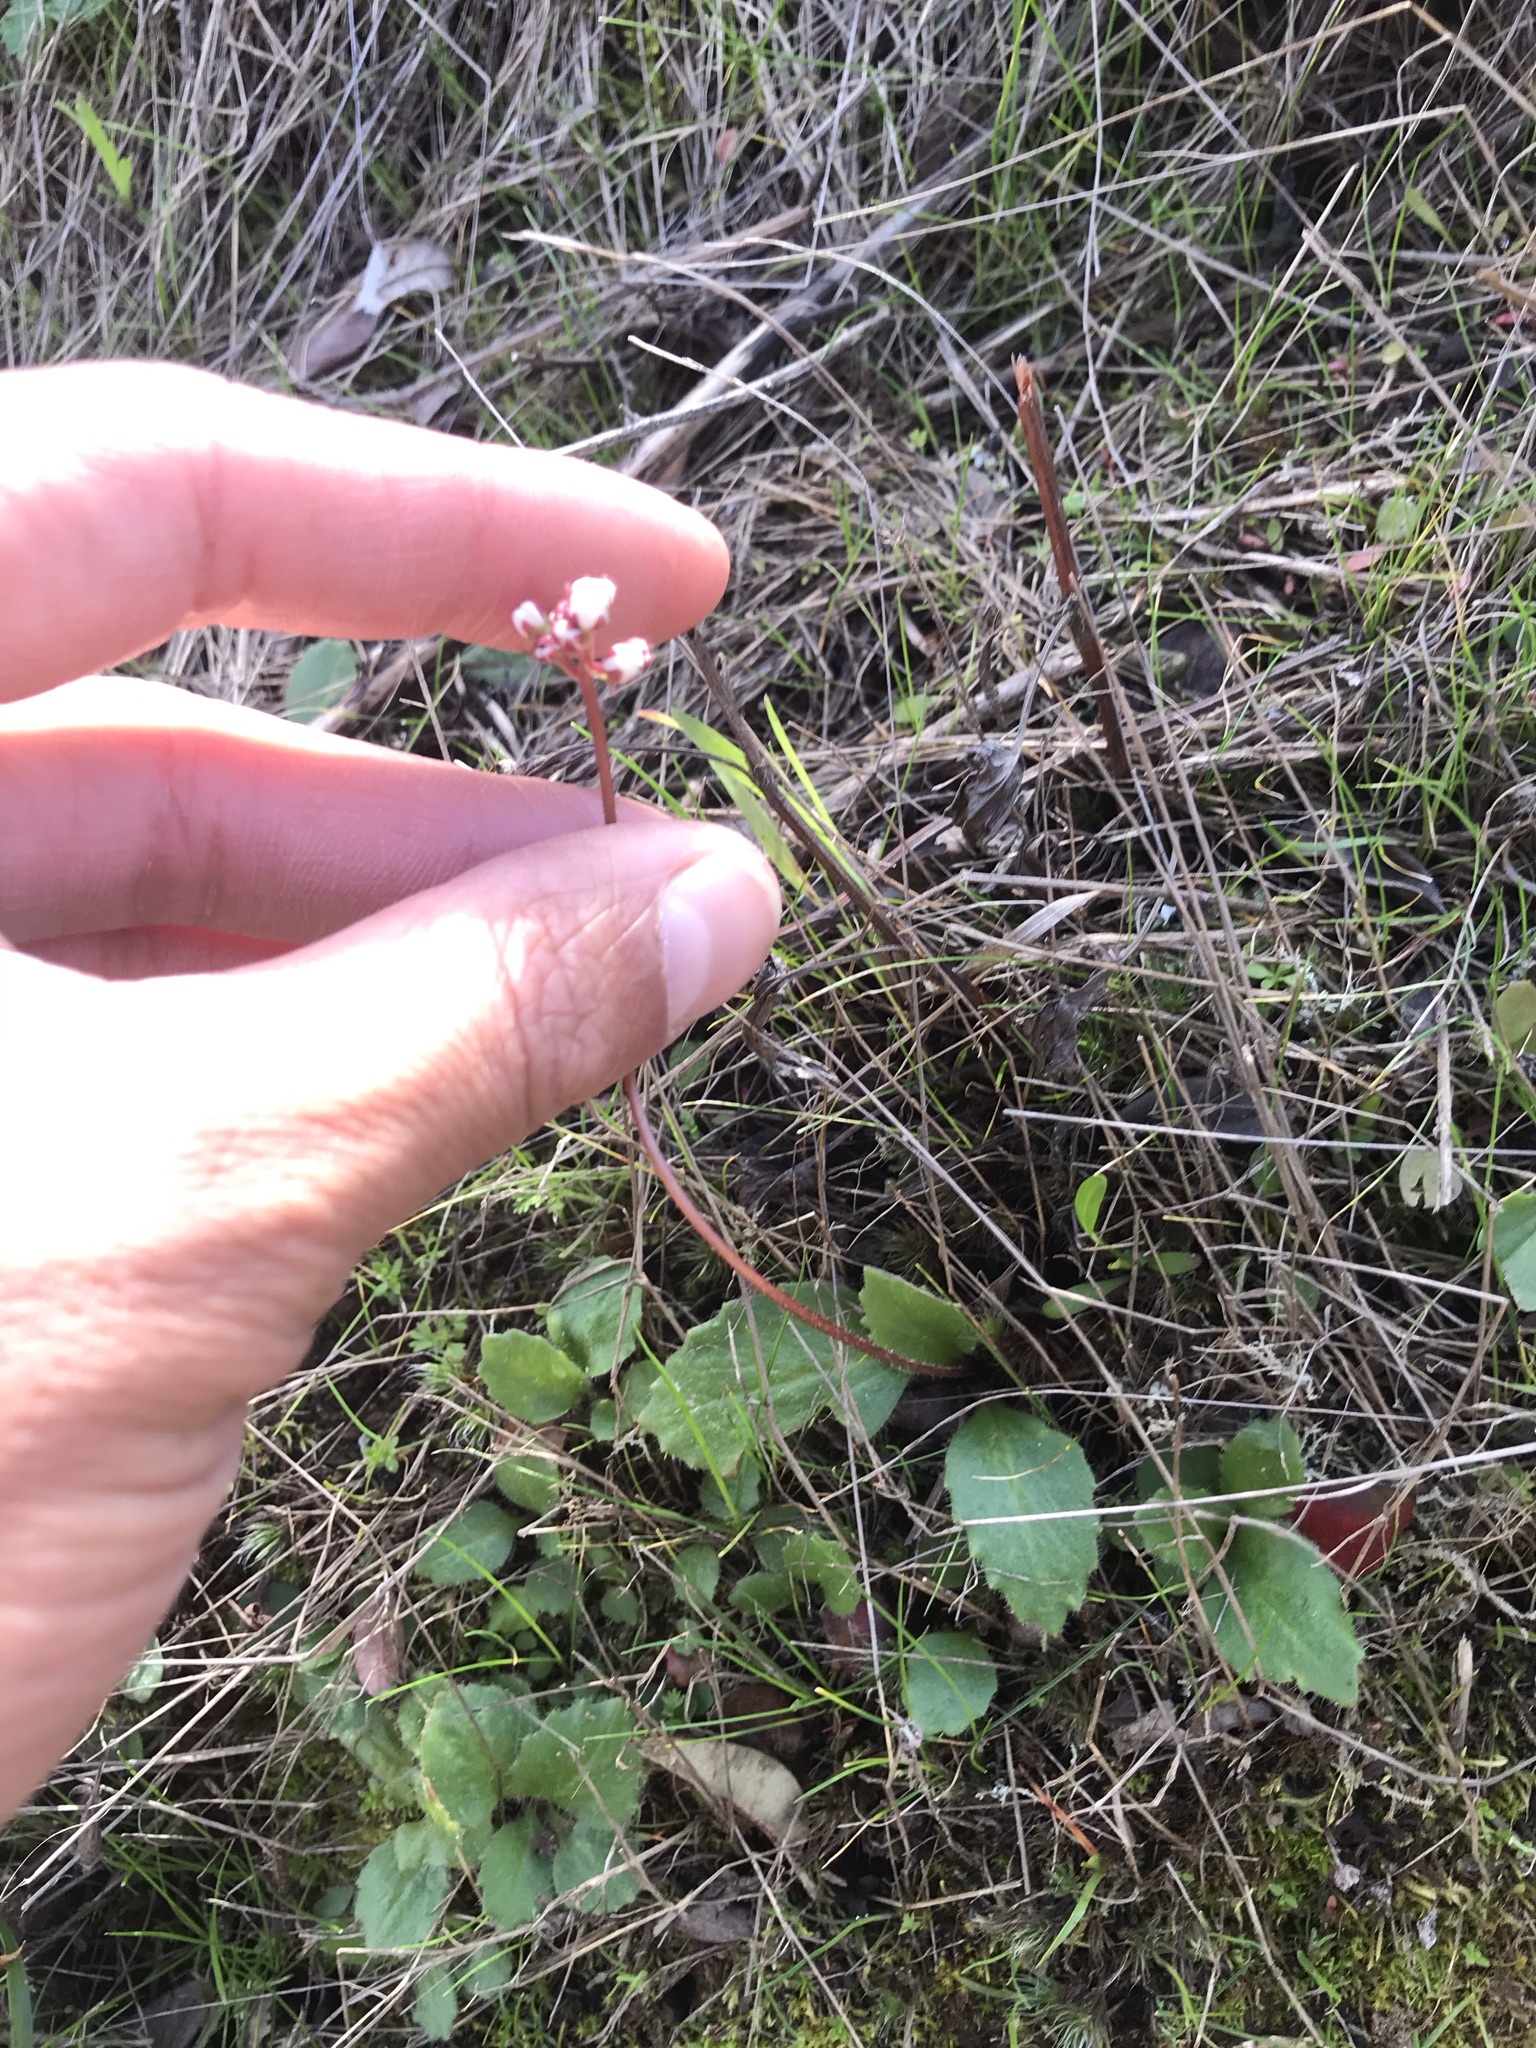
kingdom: Plantae
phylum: Tracheophyta
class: Magnoliopsida
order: Saxifragales
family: Saxifragaceae
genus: Micranthes
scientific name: Micranthes californica
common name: California saxifrage
